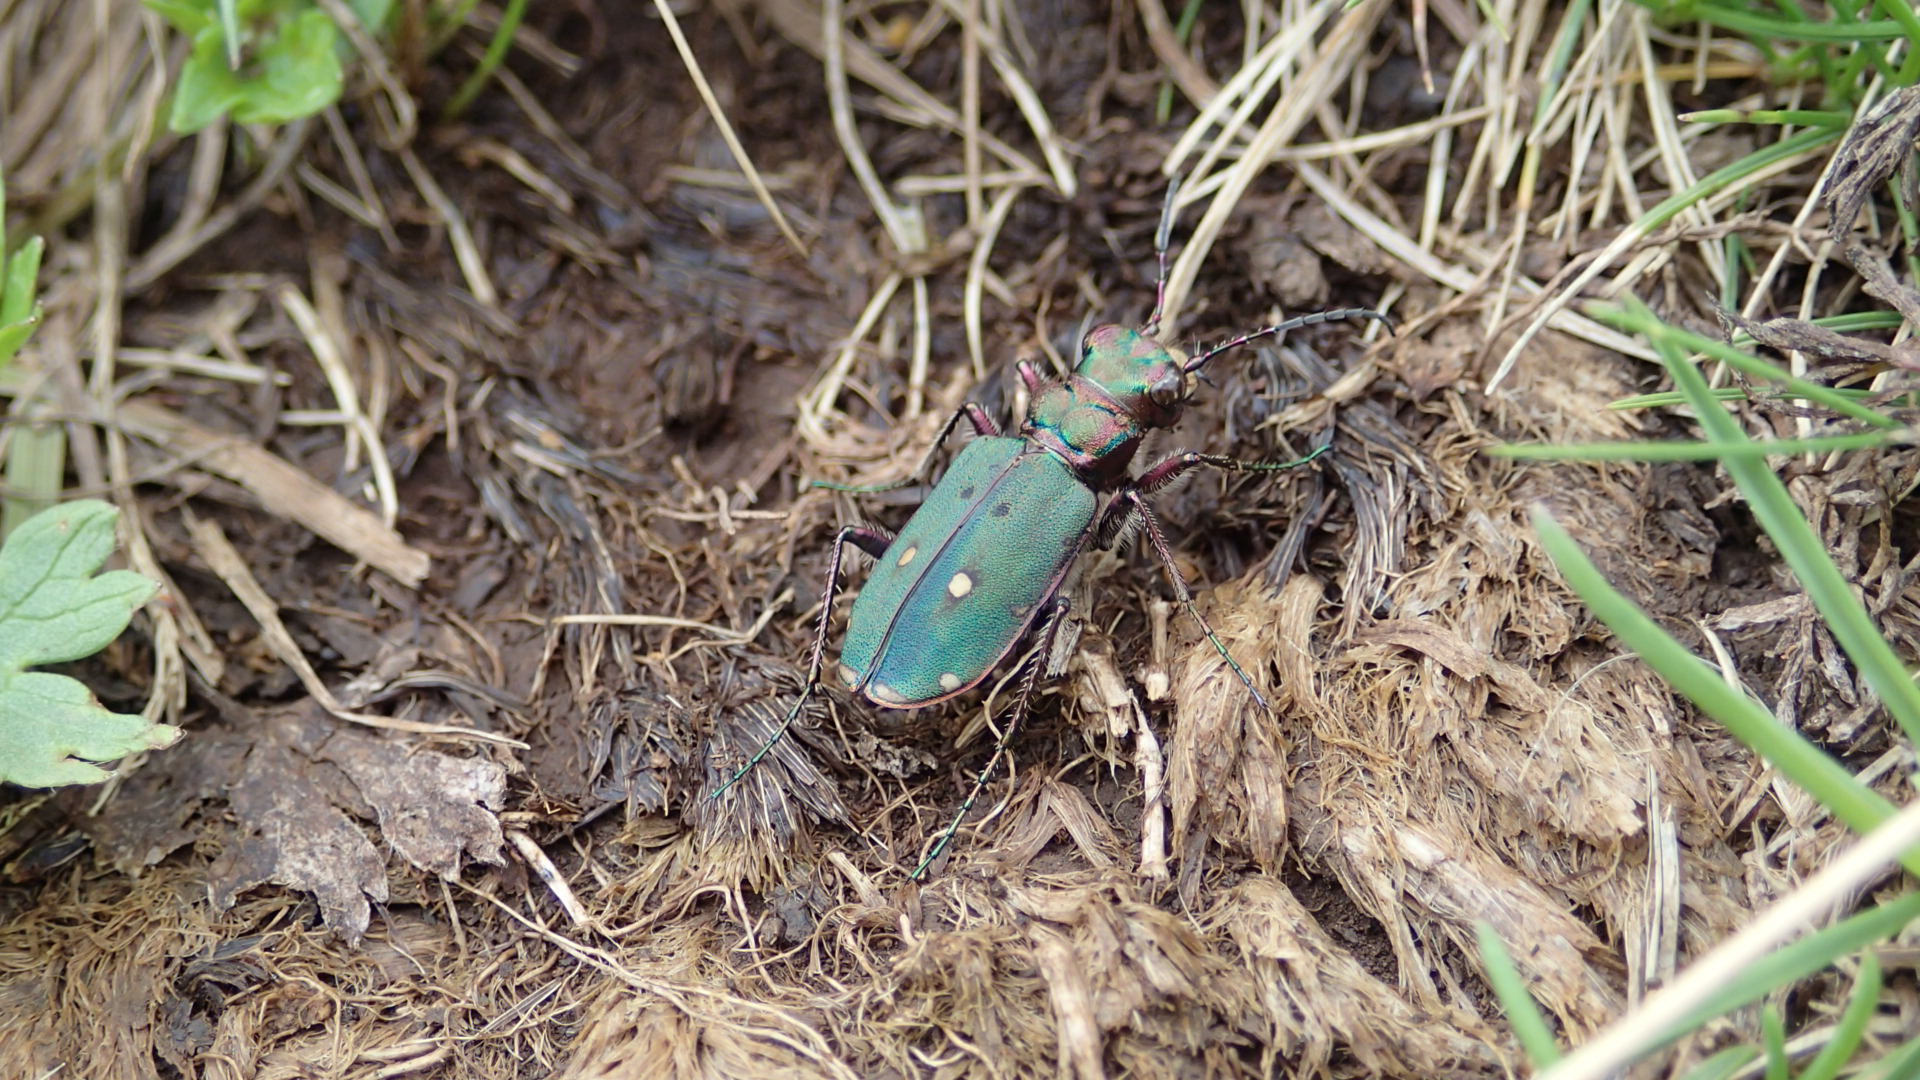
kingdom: Animalia
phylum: Arthropoda
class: Insecta
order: Coleoptera
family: Carabidae
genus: Cicindela
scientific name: Cicindela campestris
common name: Common tiger beetle
